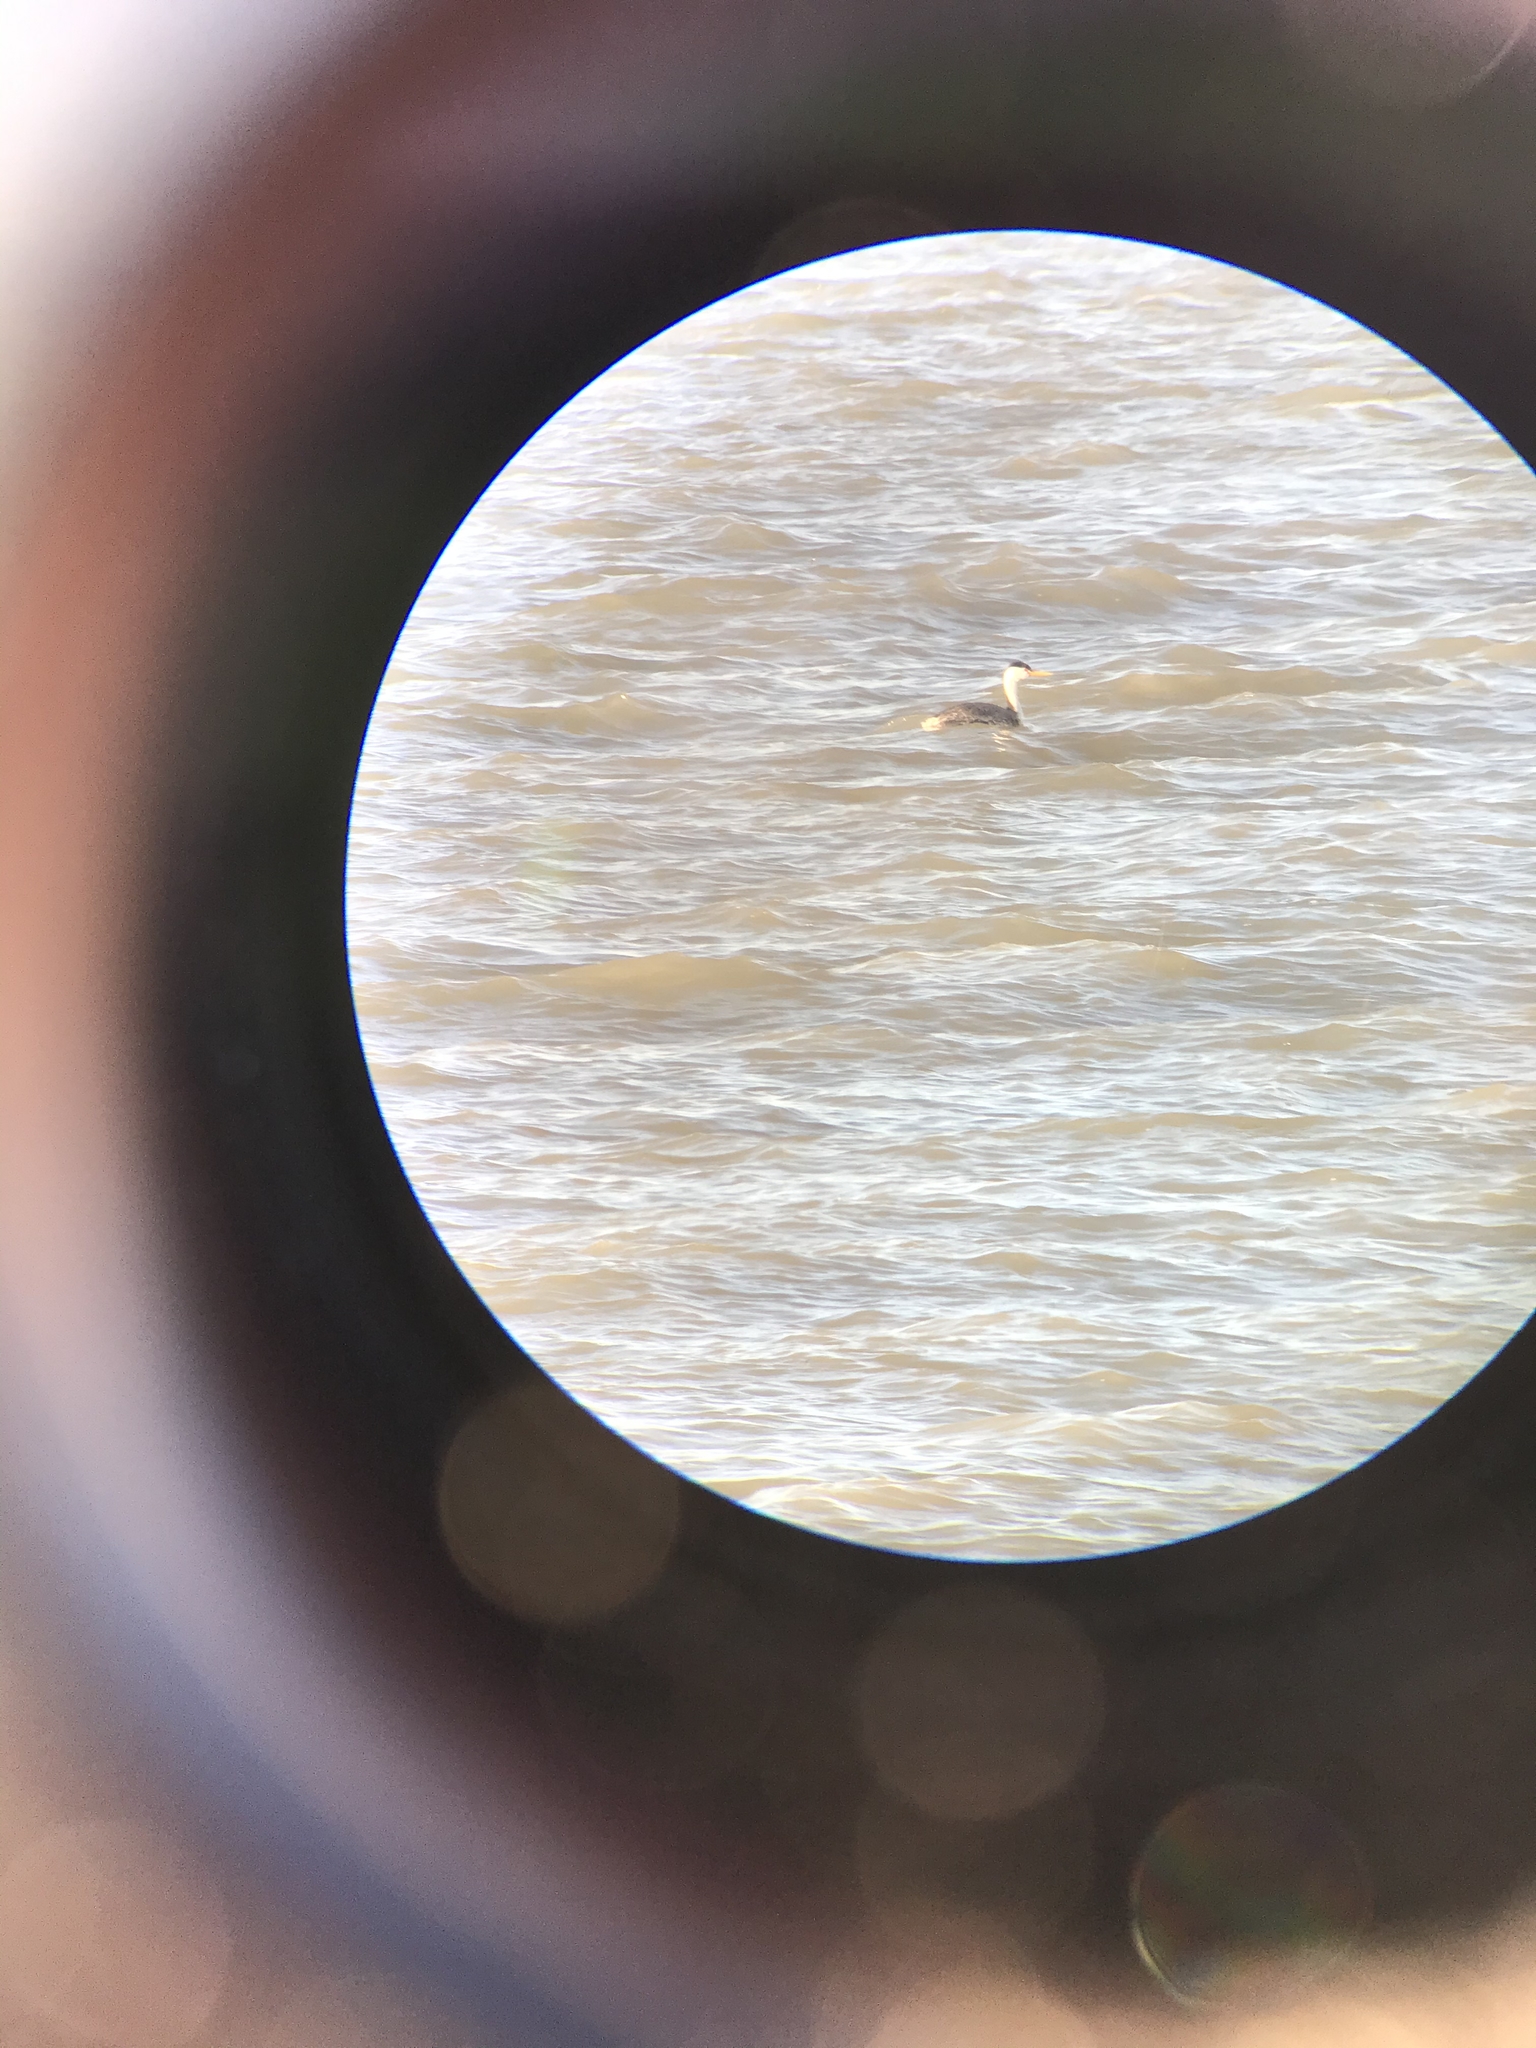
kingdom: Animalia
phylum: Chordata
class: Aves
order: Podicipediformes
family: Podicipedidae
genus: Aechmophorus
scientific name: Aechmophorus clarkii
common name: Clark's grebe
